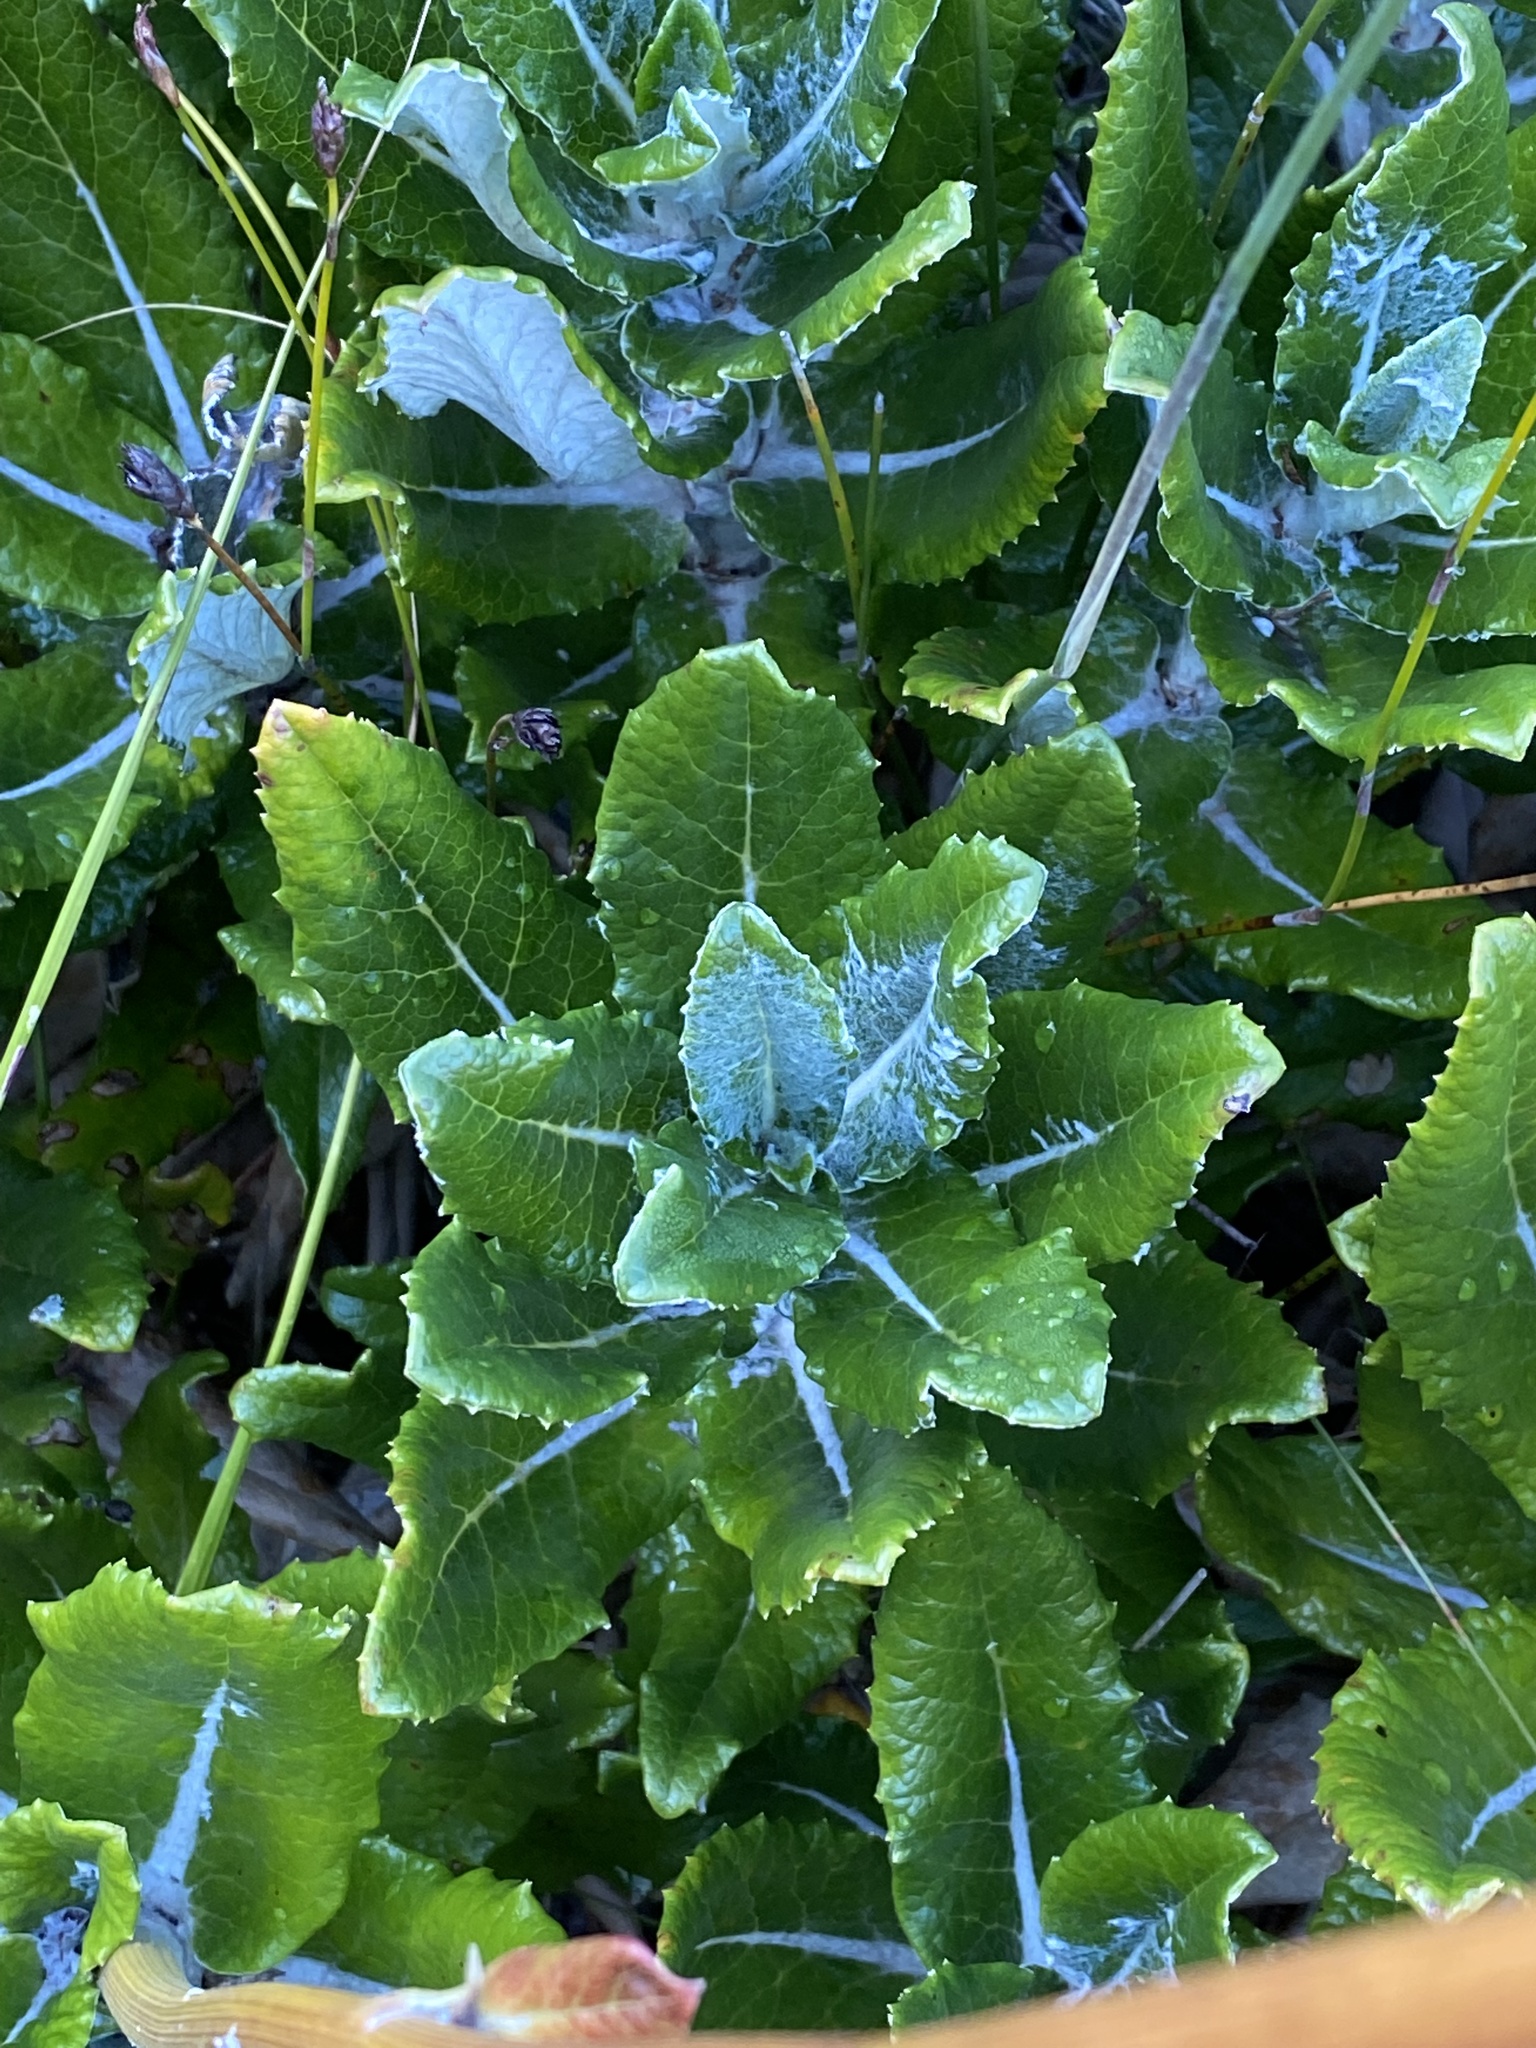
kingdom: Plantae
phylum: Tracheophyta
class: Magnoliopsida
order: Apiales
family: Apiaceae
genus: Hermas
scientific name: Hermas villosa
